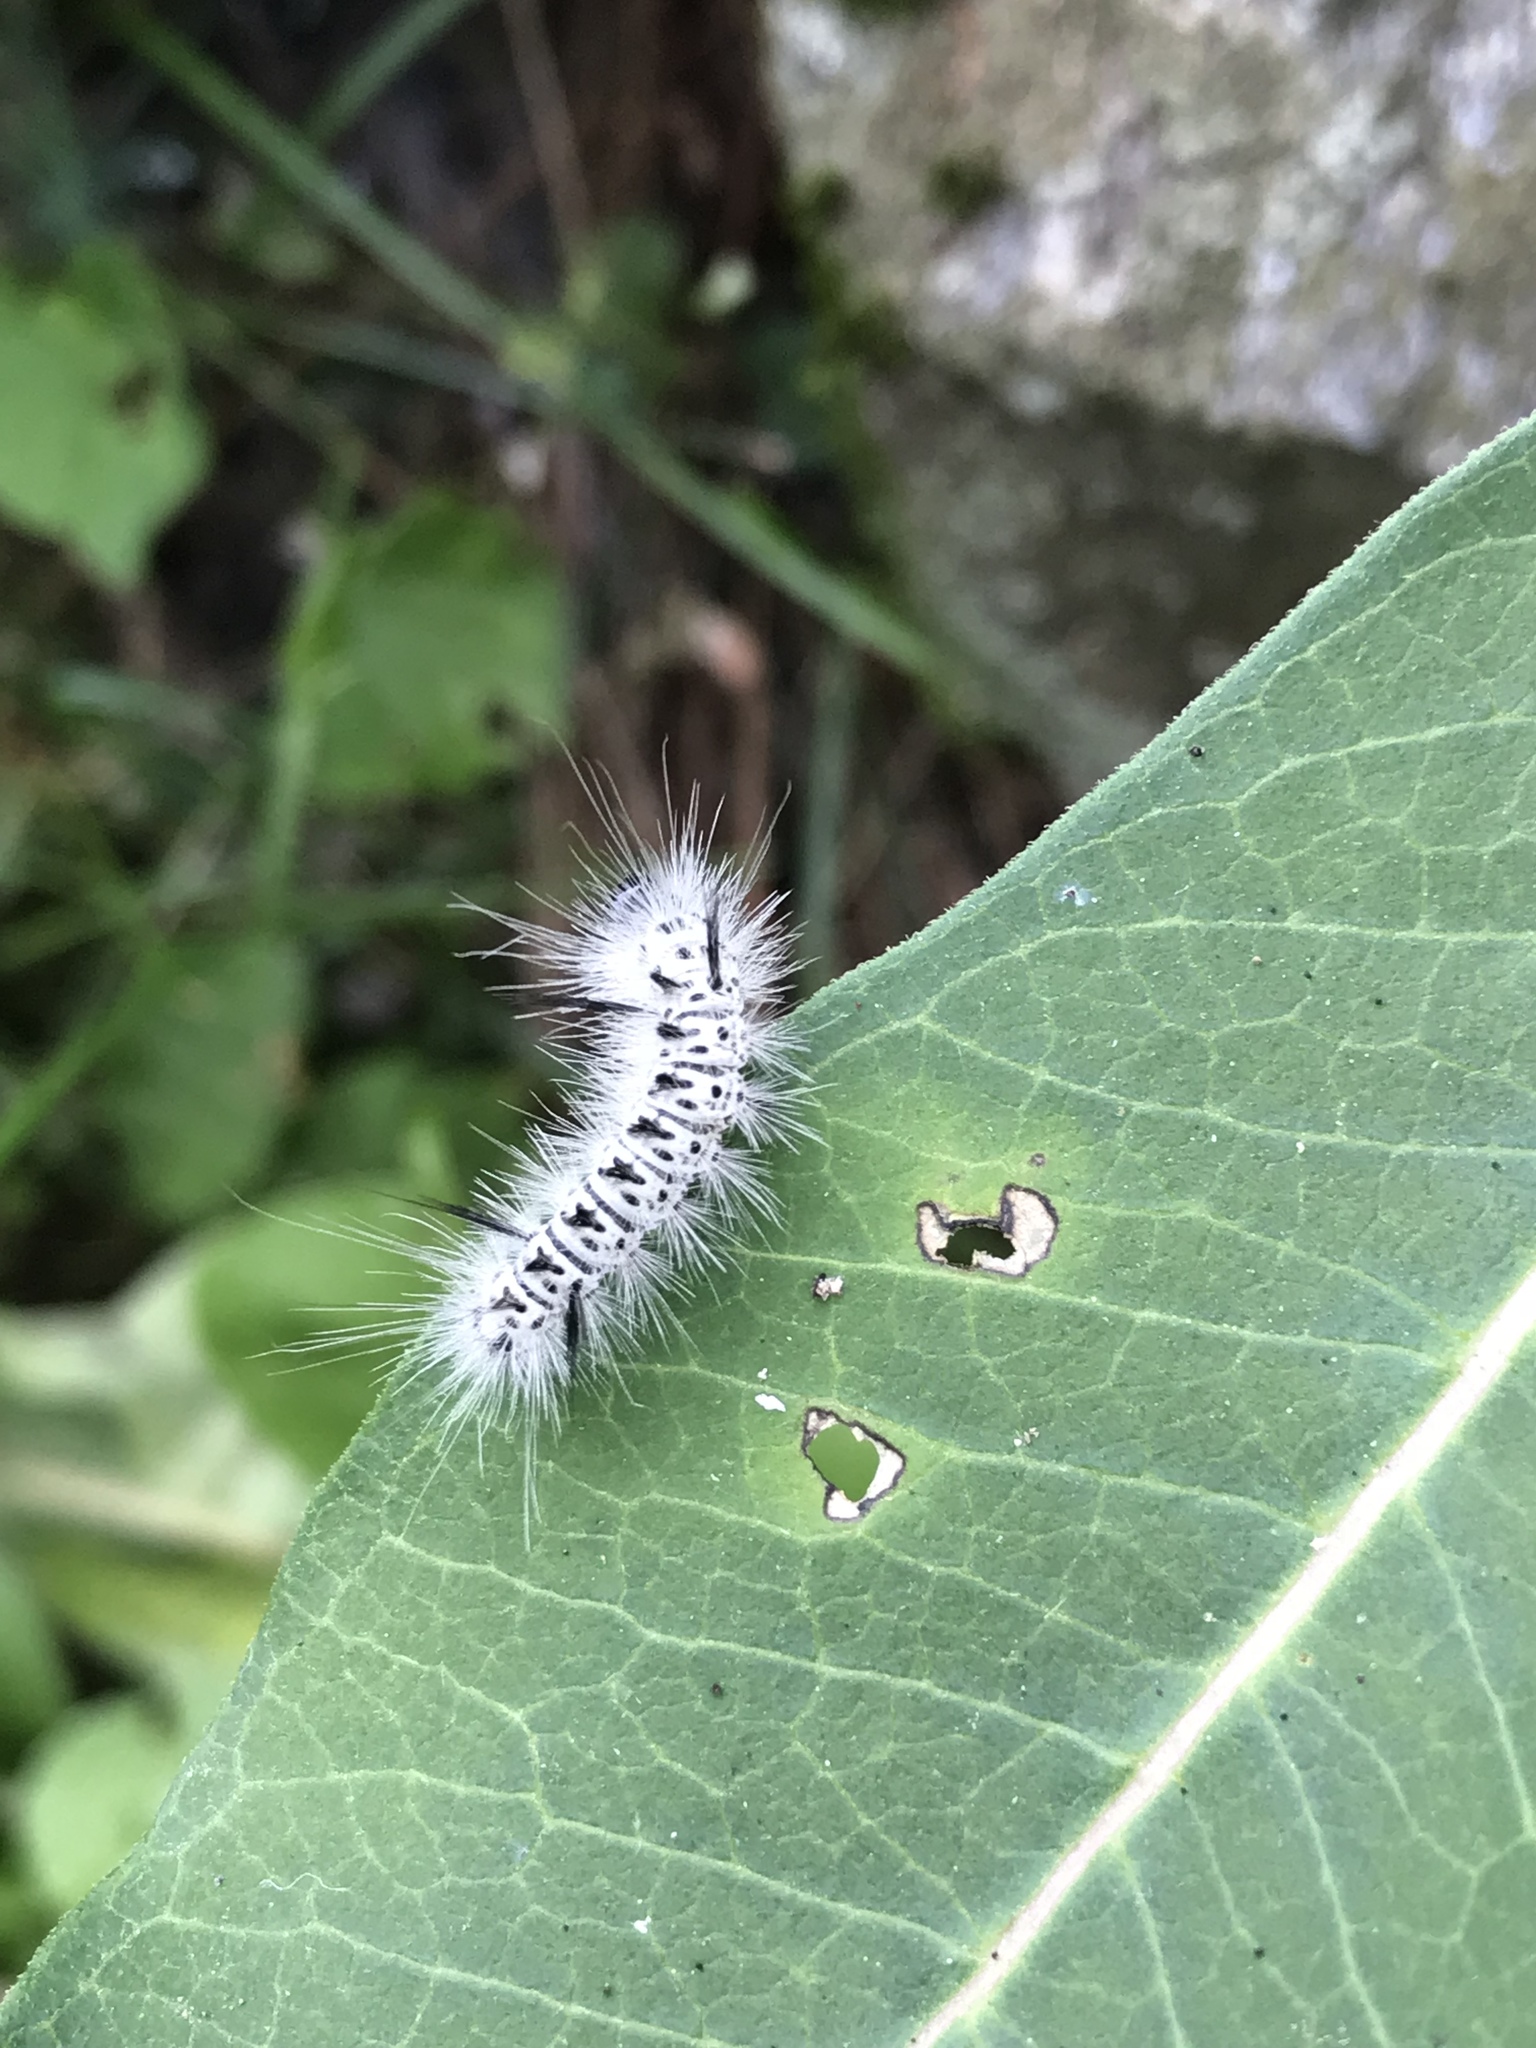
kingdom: Animalia
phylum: Arthropoda
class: Insecta
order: Lepidoptera
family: Erebidae
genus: Lophocampa
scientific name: Lophocampa caryae
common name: Hickory tussock moth
